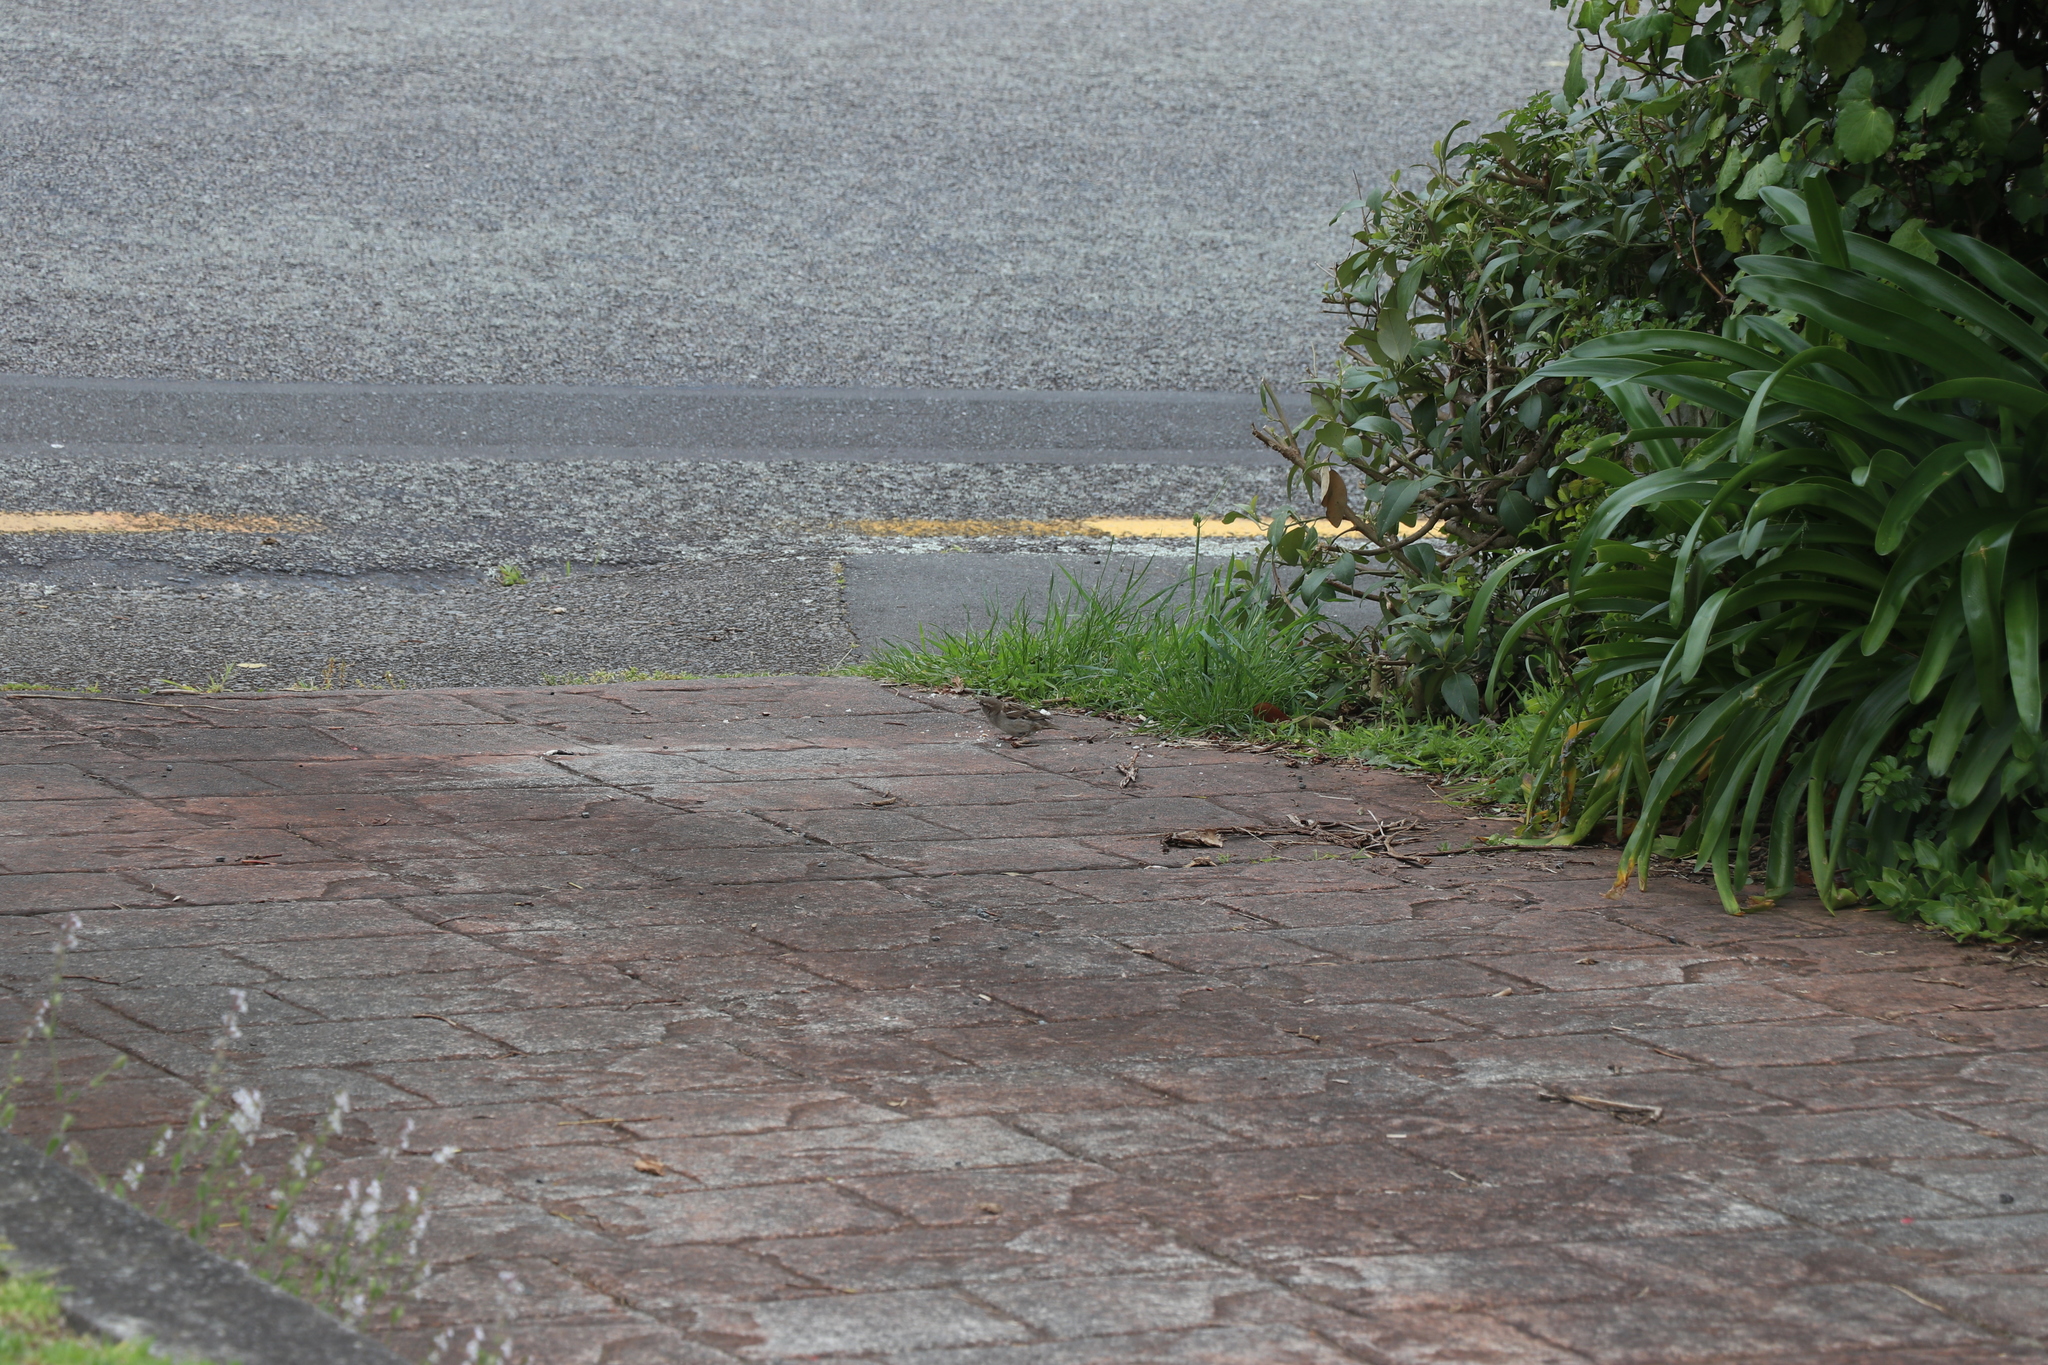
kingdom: Animalia
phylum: Chordata
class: Aves
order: Passeriformes
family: Passeridae
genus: Passer
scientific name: Passer domesticus
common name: House sparrow
